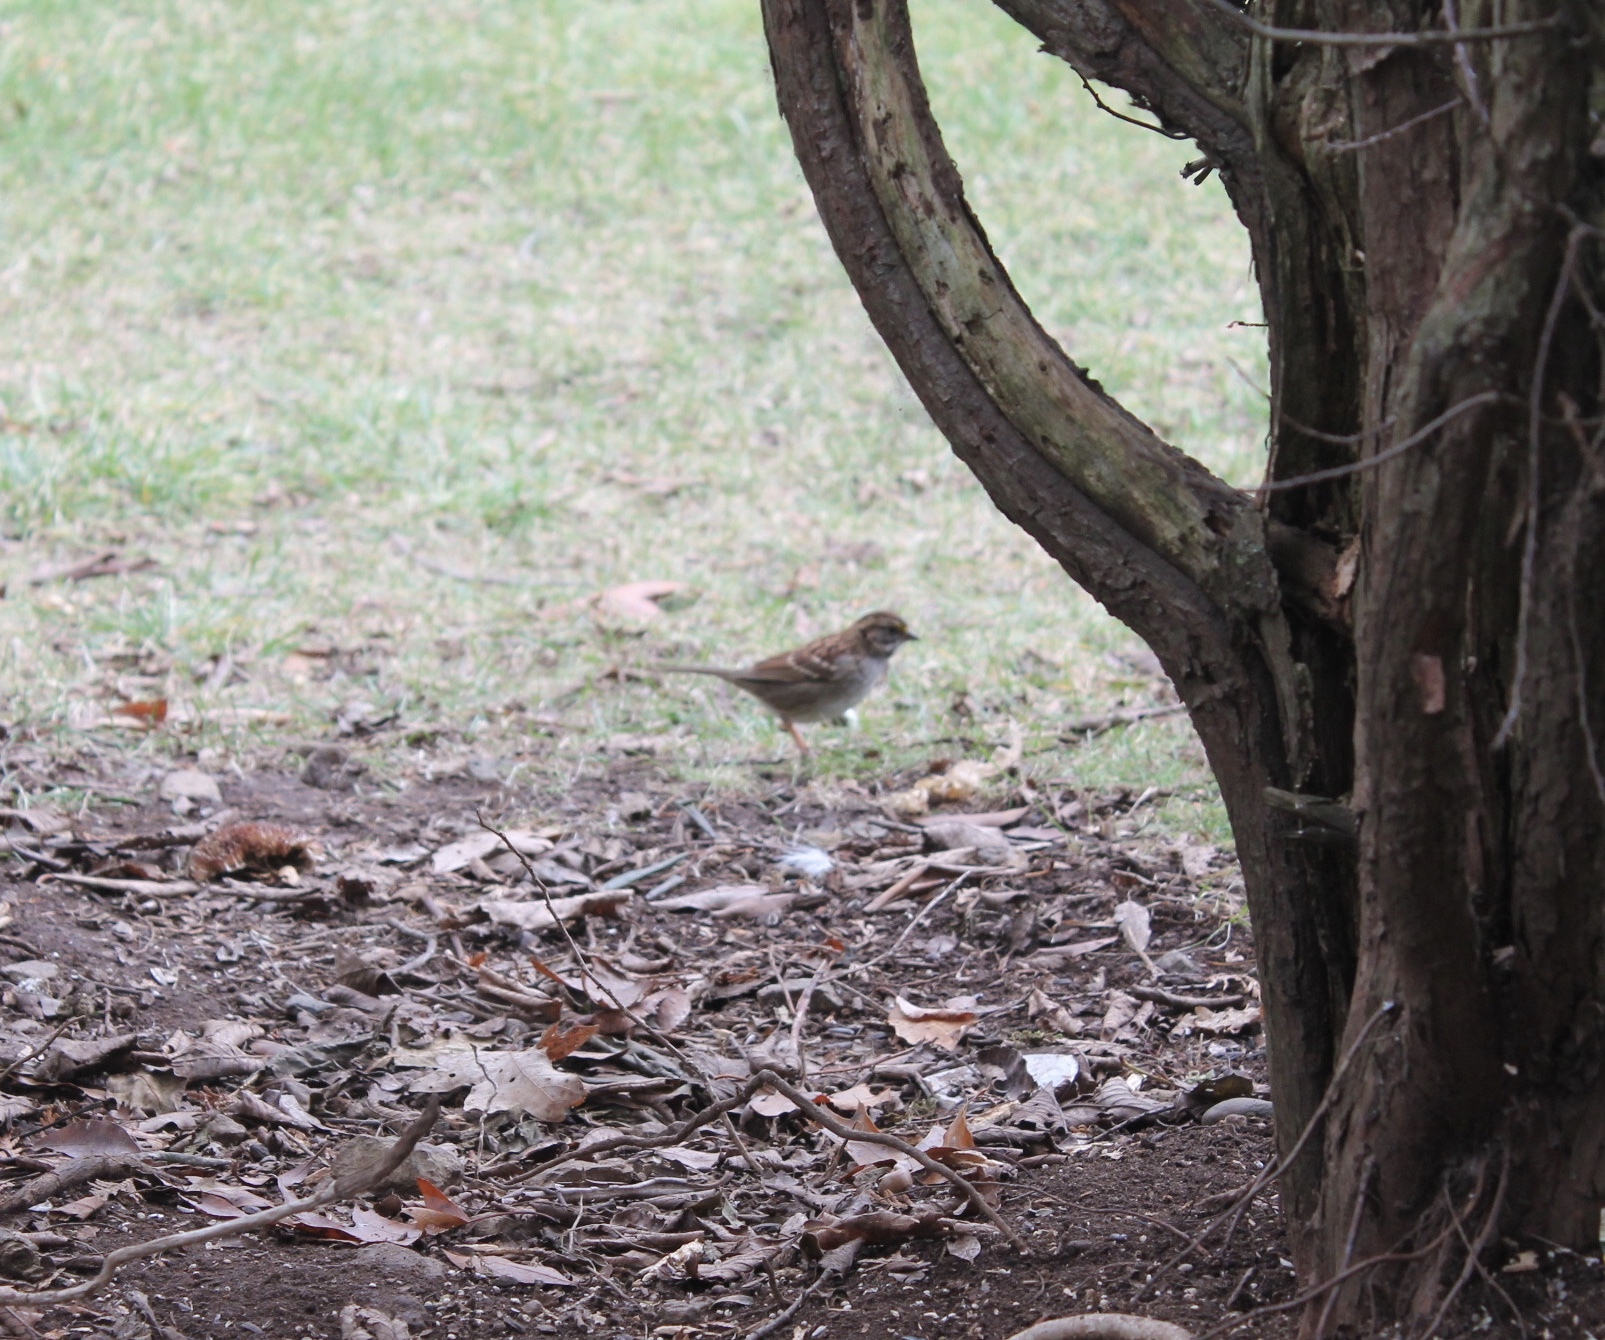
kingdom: Animalia
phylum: Chordata
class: Aves
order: Passeriformes
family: Passerellidae
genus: Zonotrichia
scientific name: Zonotrichia albicollis
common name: White-throated sparrow
